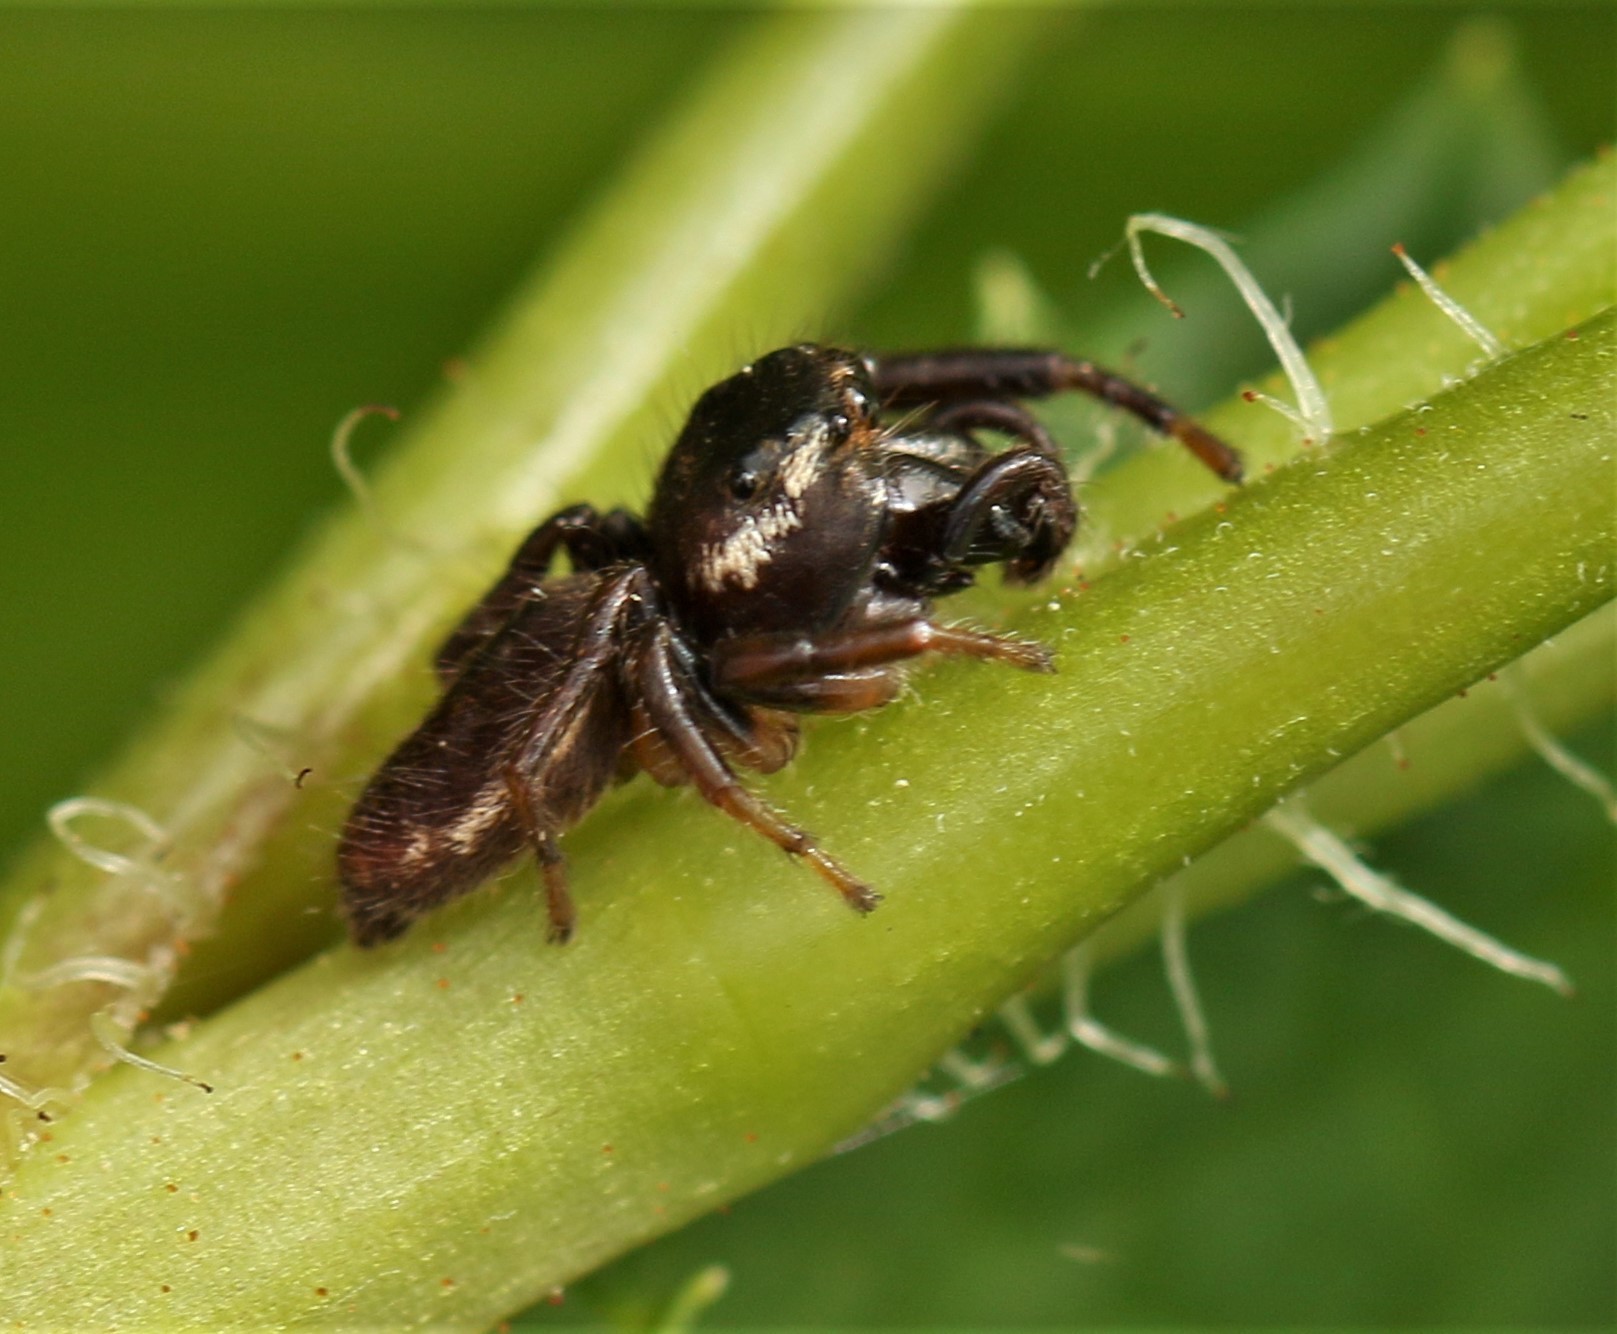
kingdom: Animalia
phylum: Arthropoda
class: Arachnida
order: Araneae
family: Salticidae
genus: Eris
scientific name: Eris militaris
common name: Bronze jumper
